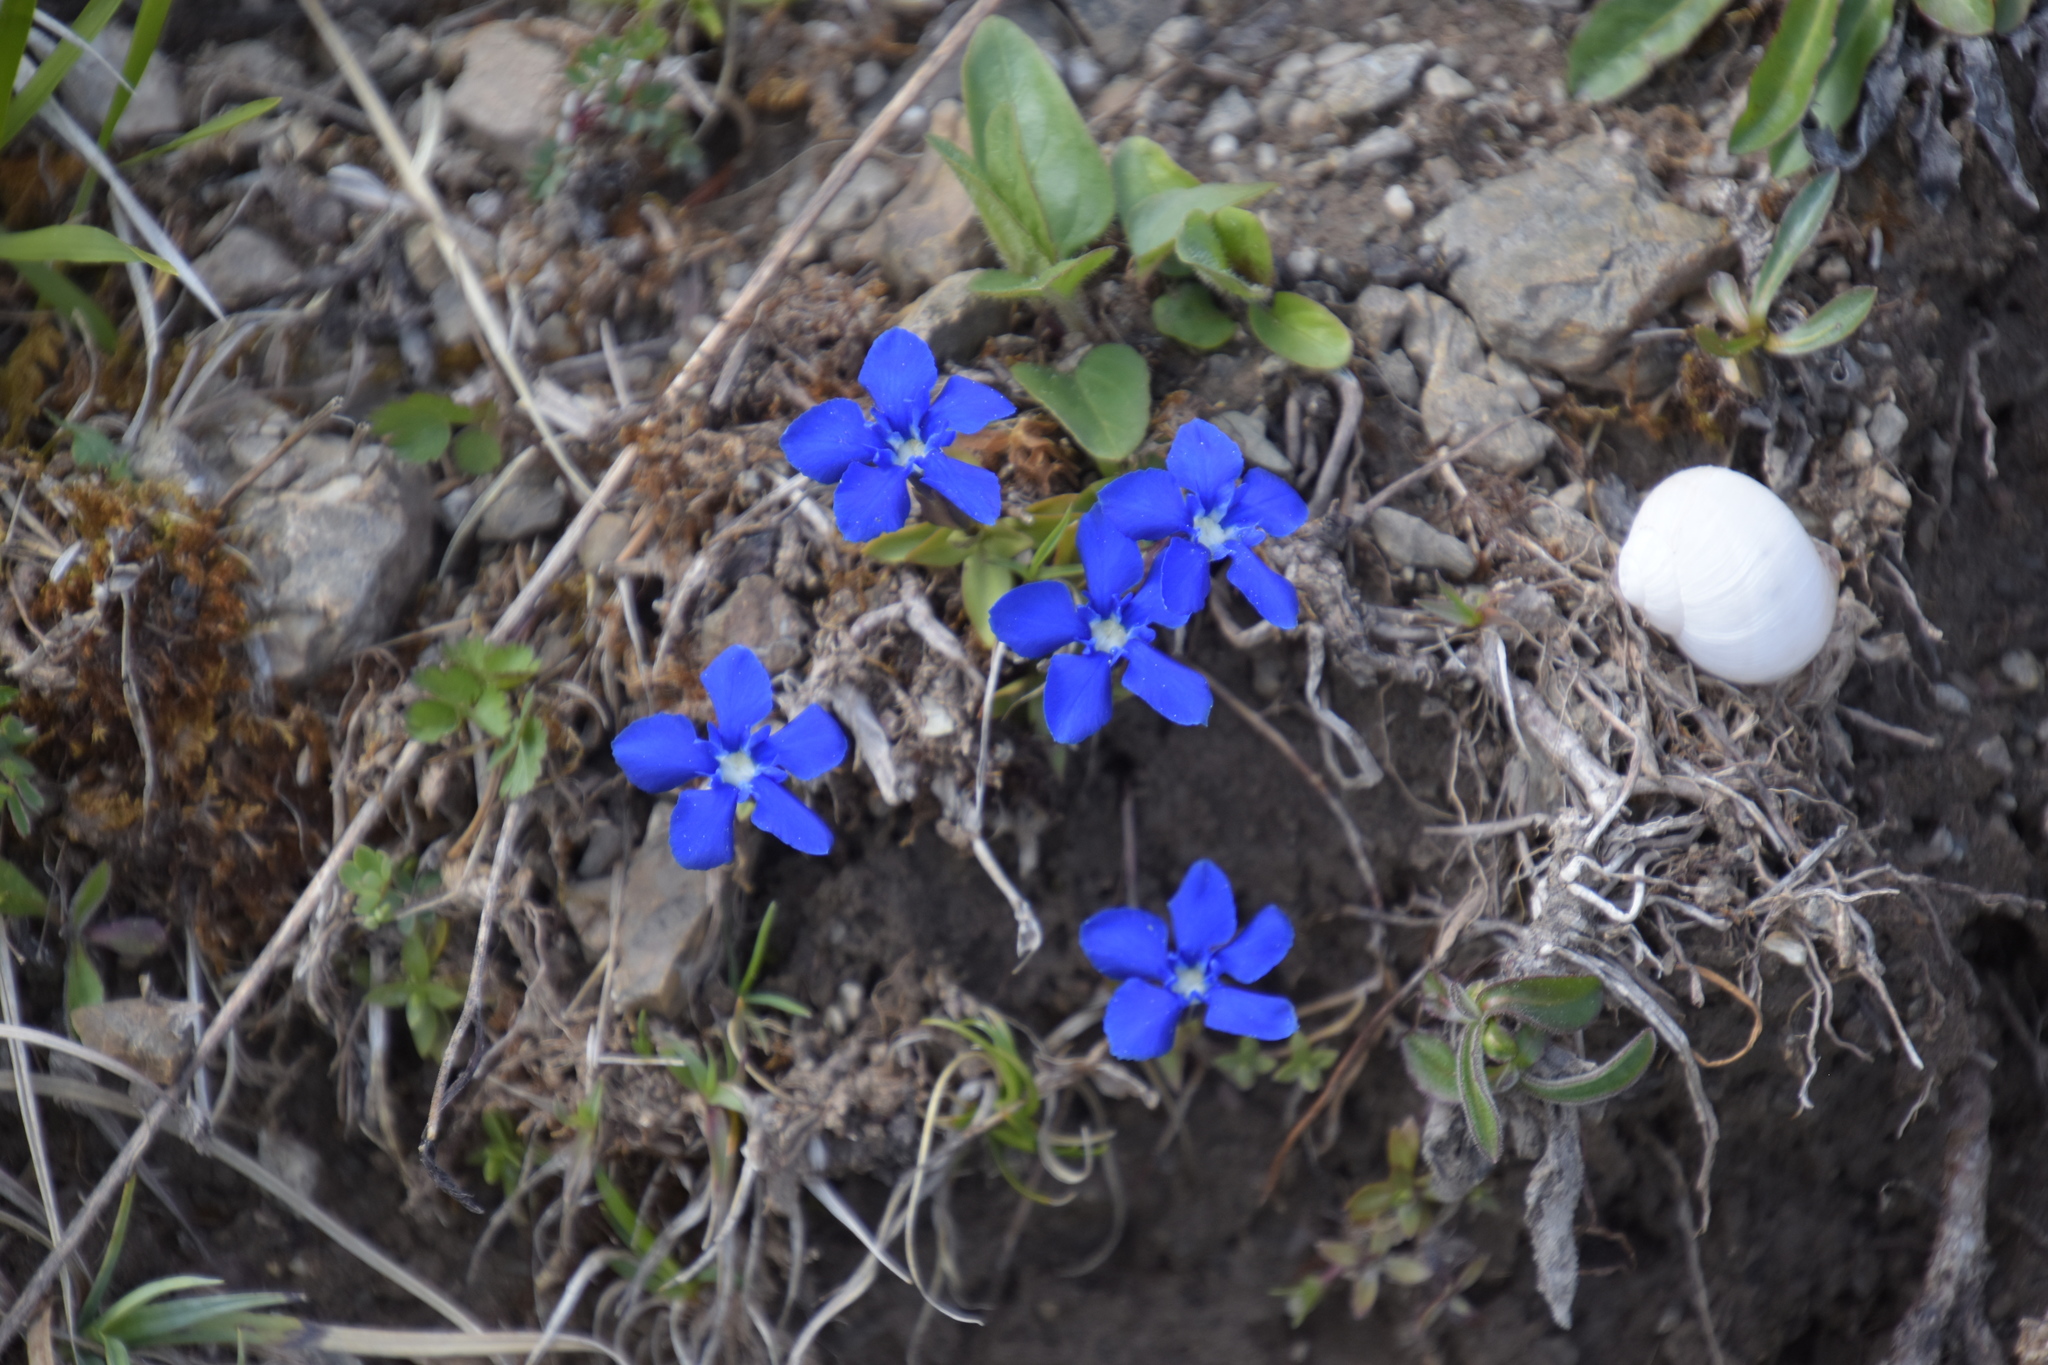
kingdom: Plantae
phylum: Tracheophyta
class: Magnoliopsida
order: Gentianales
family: Gentianaceae
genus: Gentiana
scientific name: Gentiana verna
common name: Spring gentian
